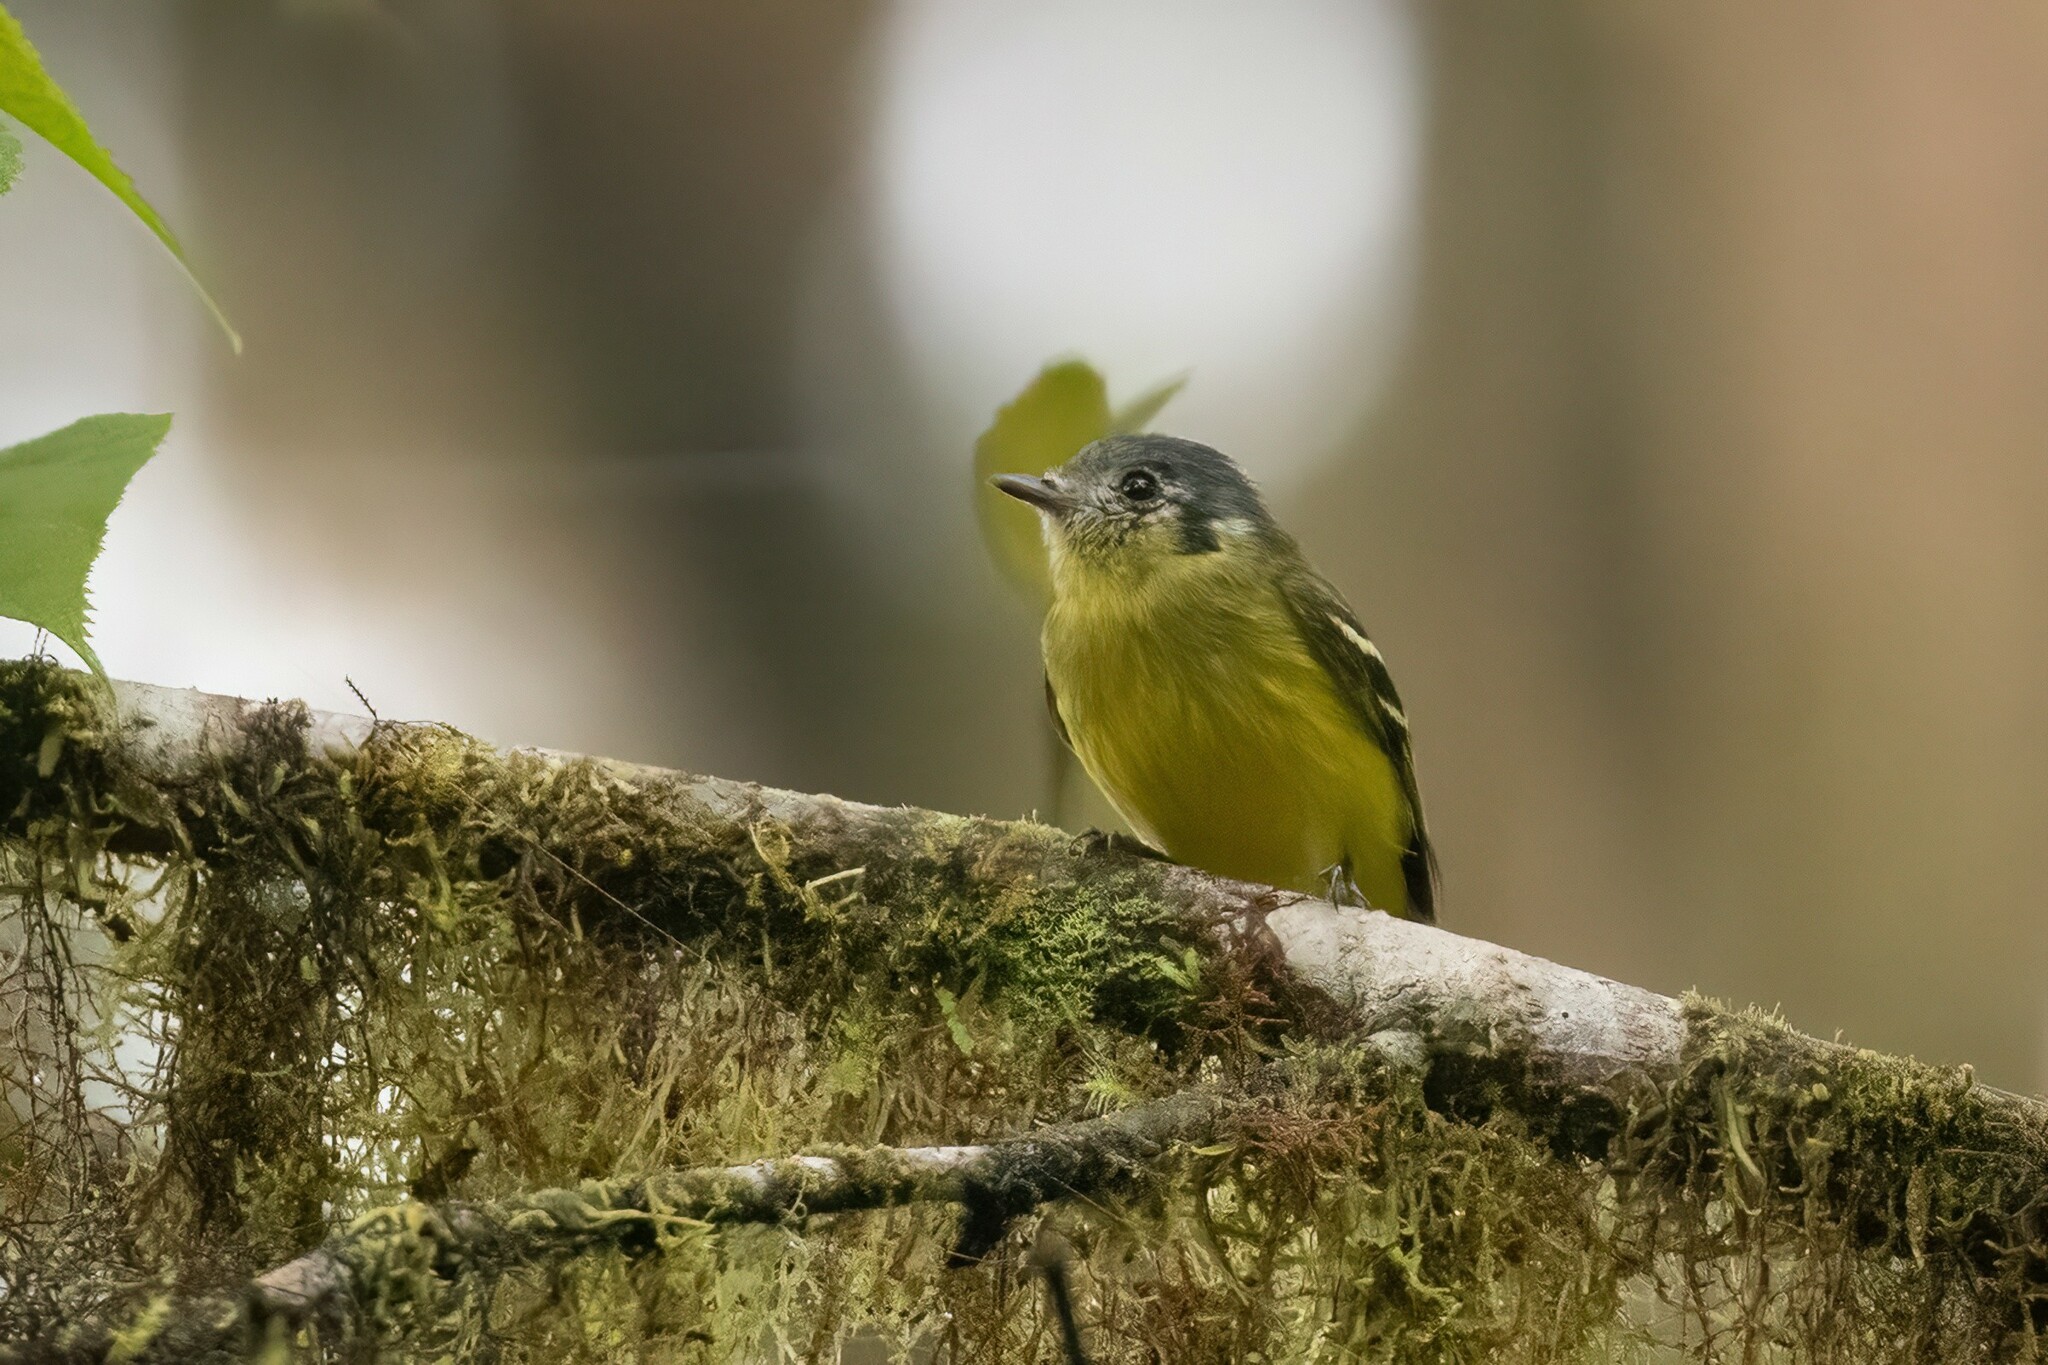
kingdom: Animalia
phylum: Chordata
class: Aves
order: Passeriformes
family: Tyrannidae
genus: Phyllomyias
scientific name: Phyllomyias cinereiceps
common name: Ashy-headed tyrannulet
